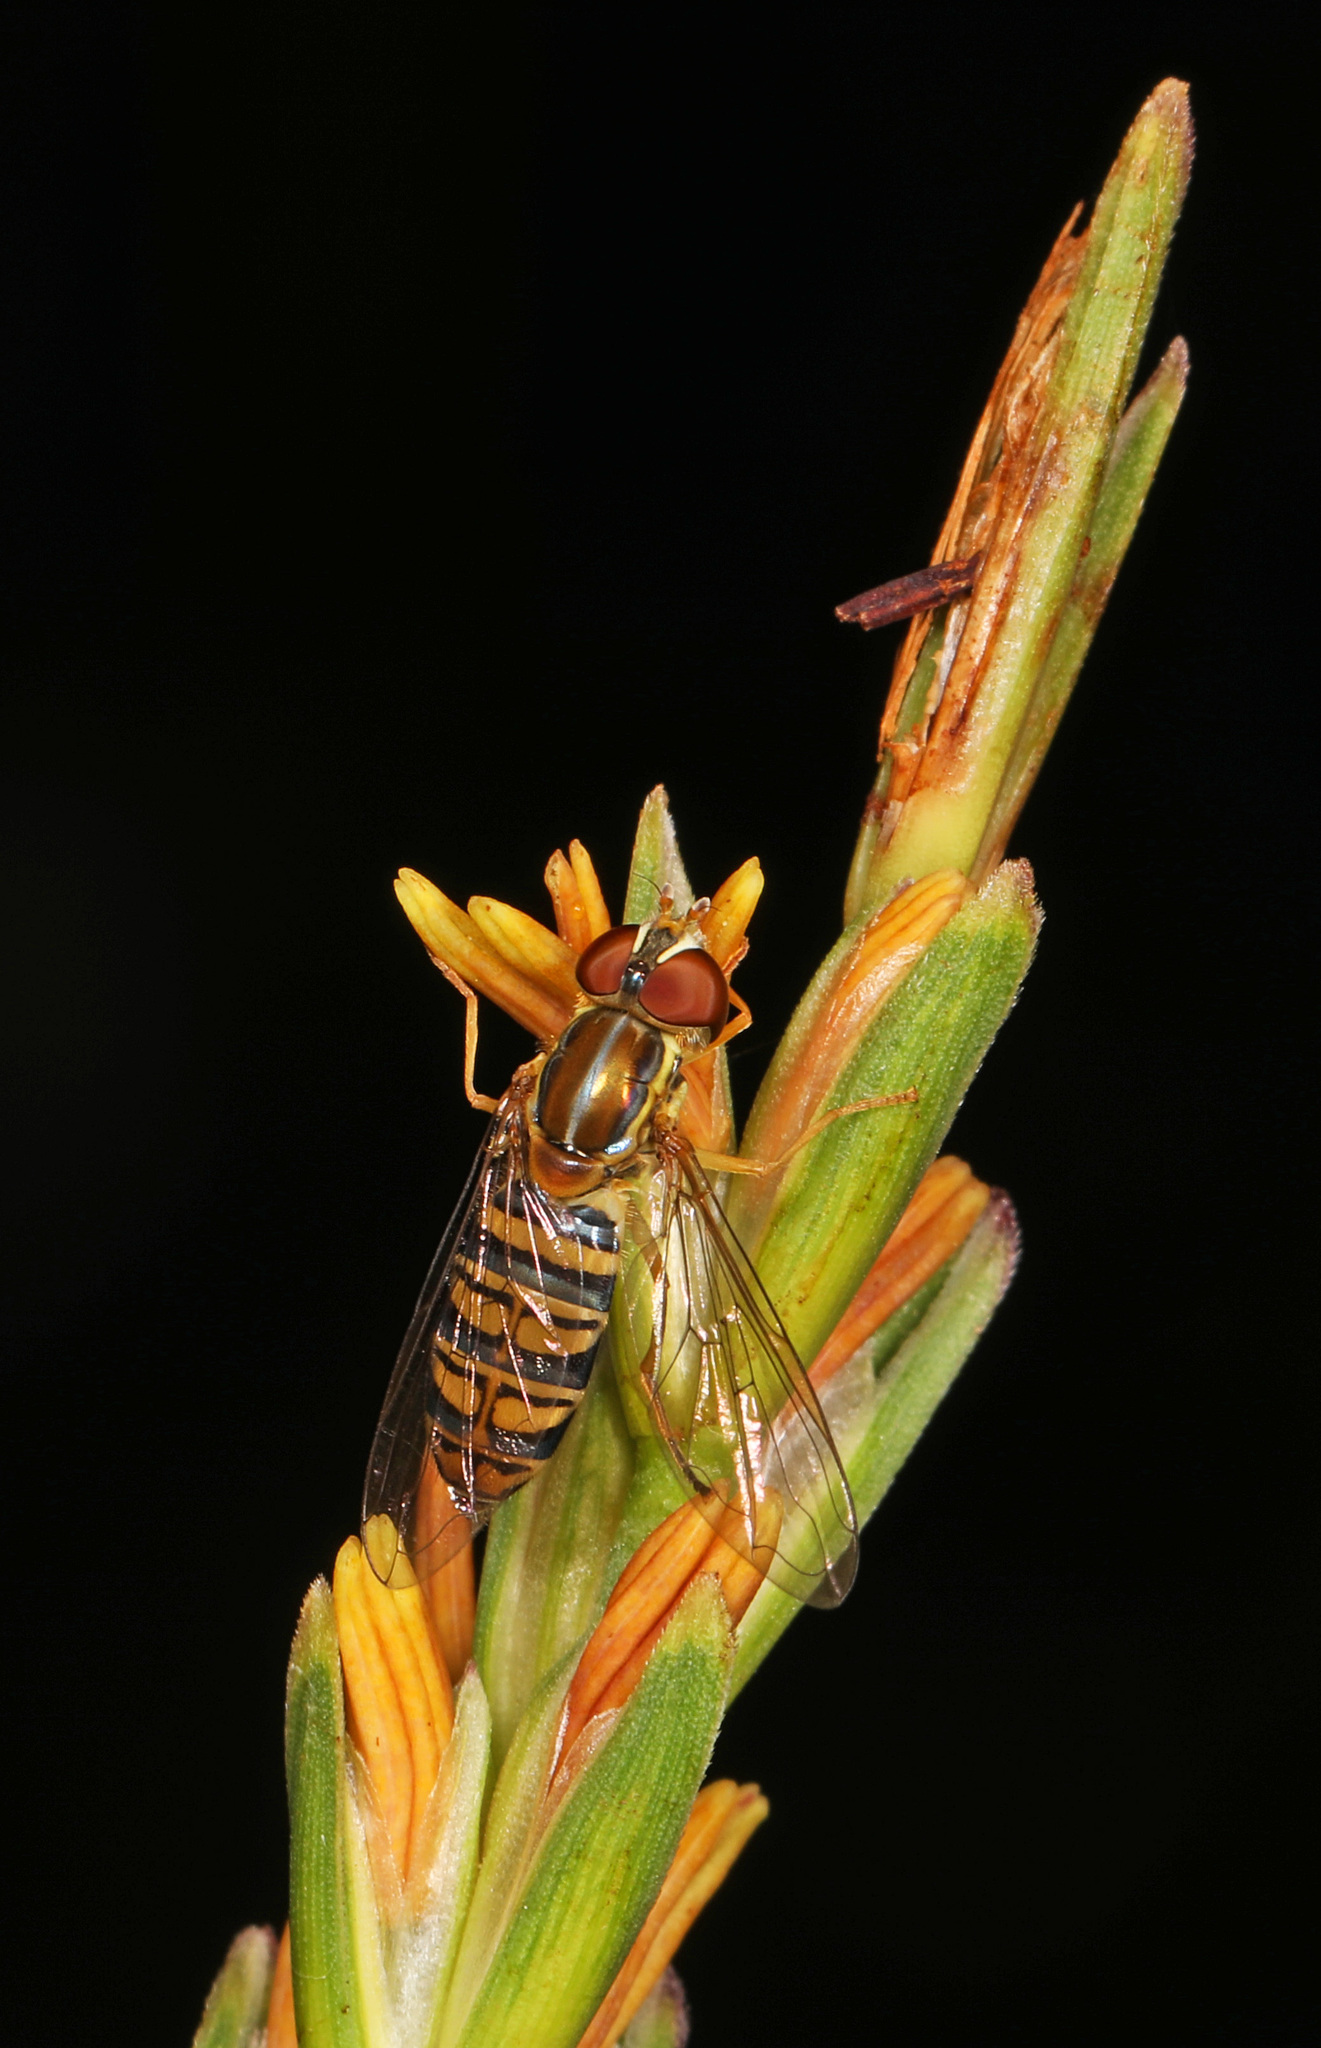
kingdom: Animalia
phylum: Arthropoda
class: Insecta
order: Diptera
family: Syrphidae
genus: Toxomerus
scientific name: Toxomerus politus
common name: Maize calligrapher
